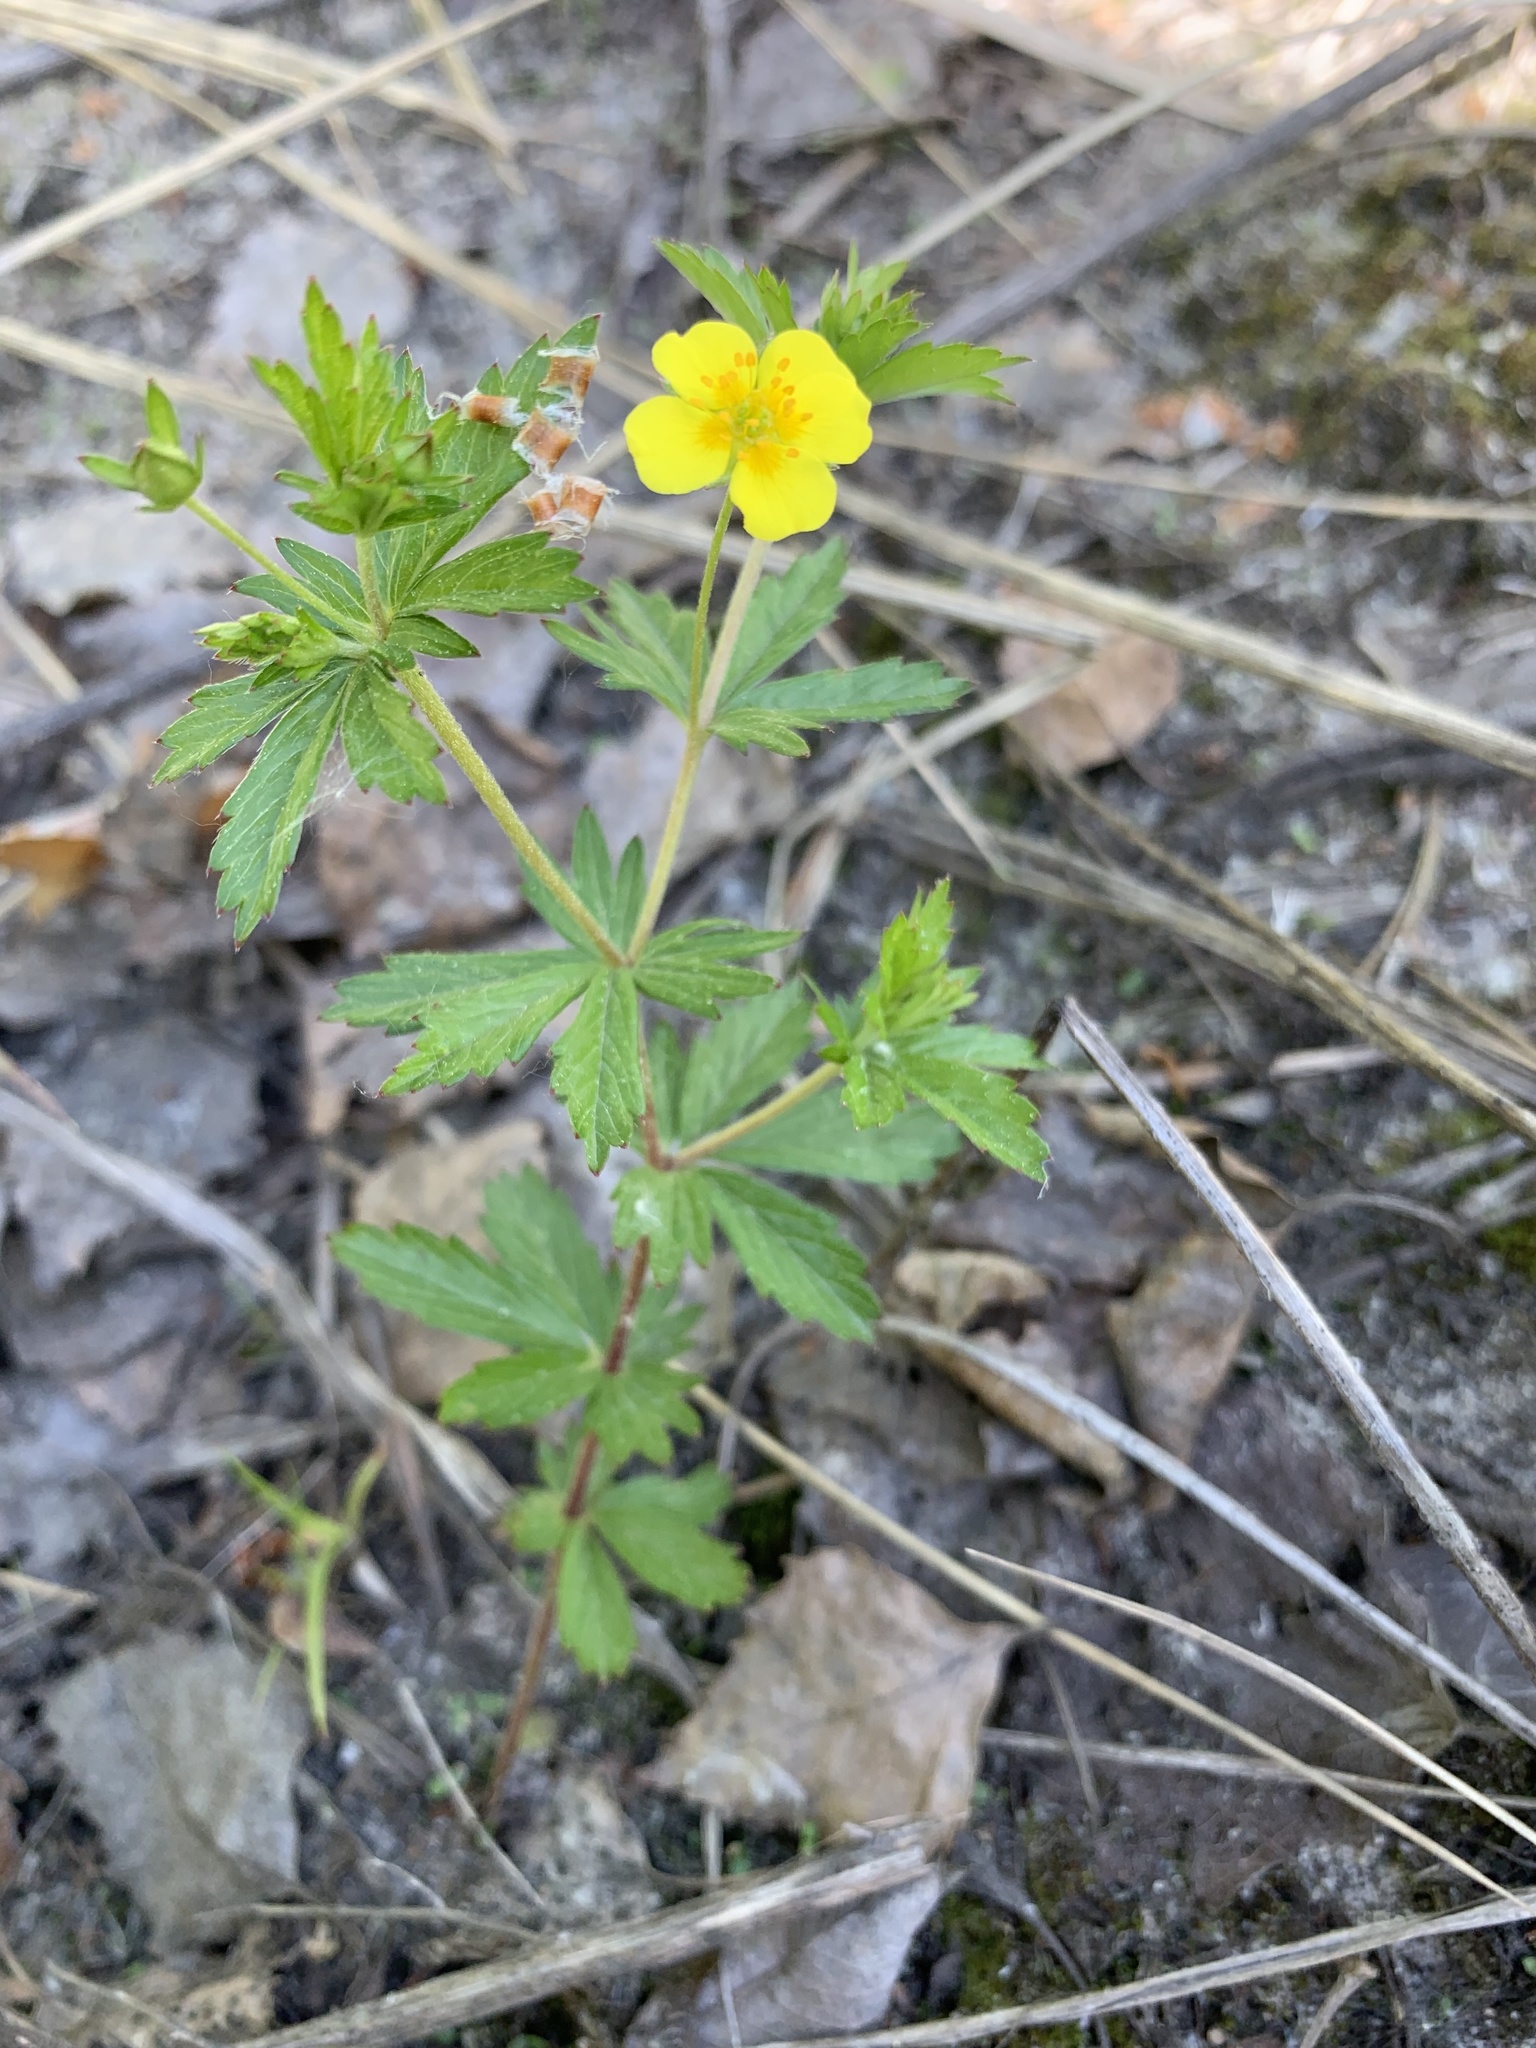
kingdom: Plantae
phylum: Tracheophyta
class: Magnoliopsida
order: Rosales
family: Rosaceae
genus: Potentilla
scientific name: Potentilla erecta
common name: Tormentil
